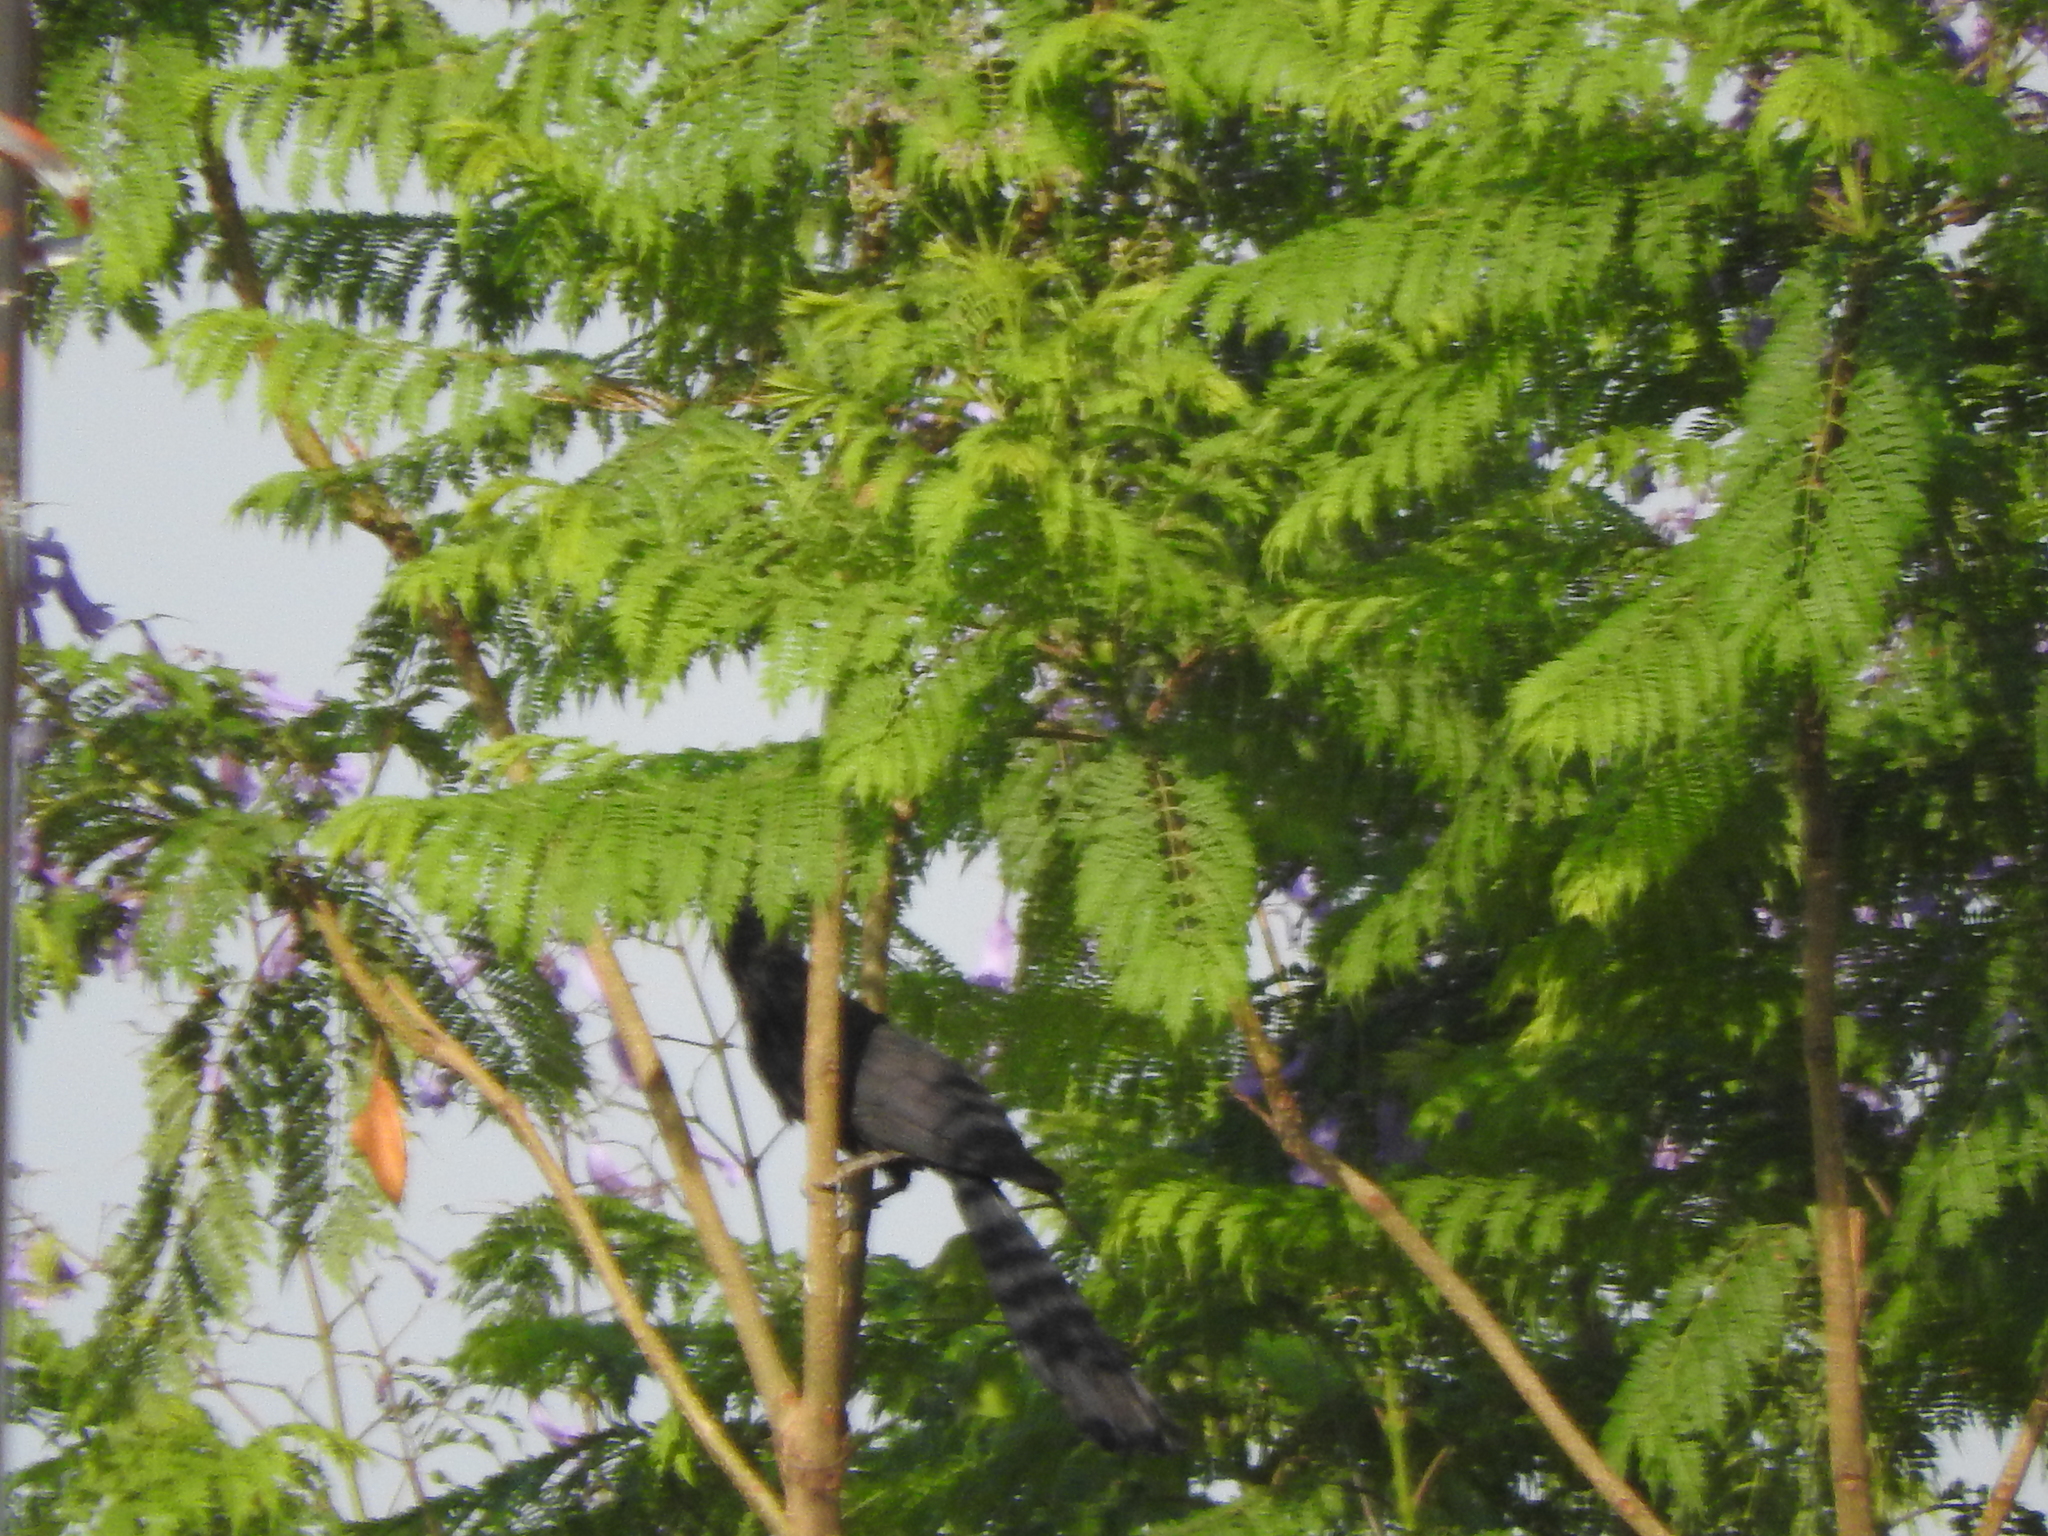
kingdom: Animalia
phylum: Chordata
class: Aves
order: Cuculiformes
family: Cuculidae
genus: Crotophaga
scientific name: Crotophaga sulcirostris
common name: Groove-billed ani
